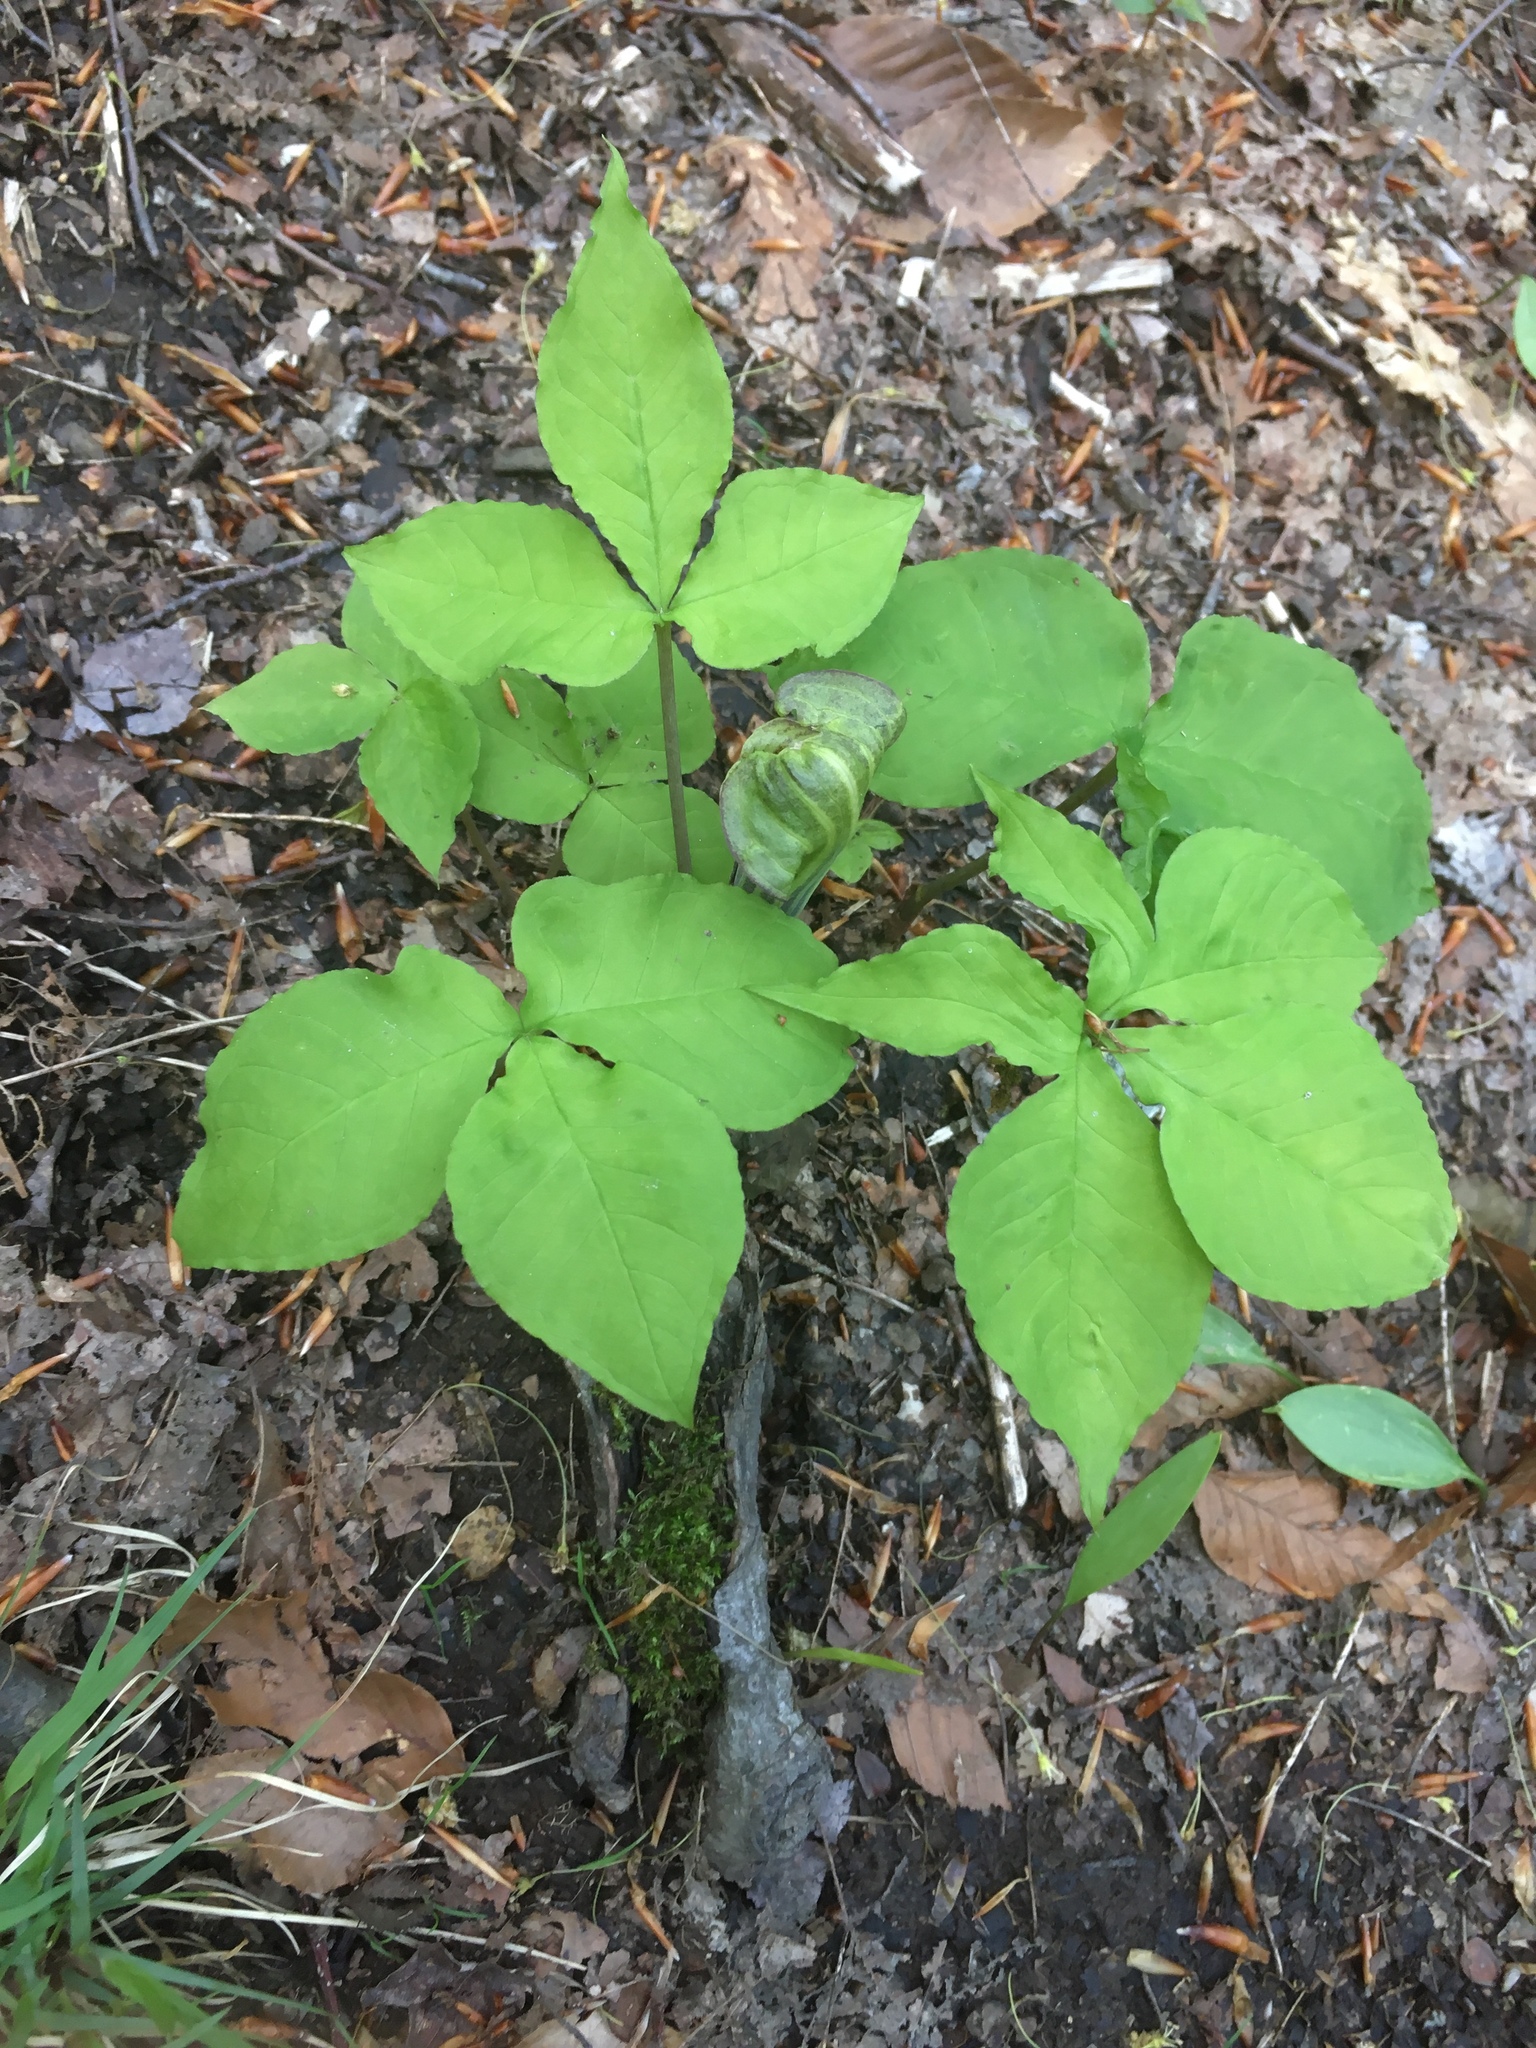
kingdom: Plantae
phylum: Tracheophyta
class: Liliopsida
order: Alismatales
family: Araceae
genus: Arisaema
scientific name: Arisaema triphyllum
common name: Jack-in-the-pulpit
